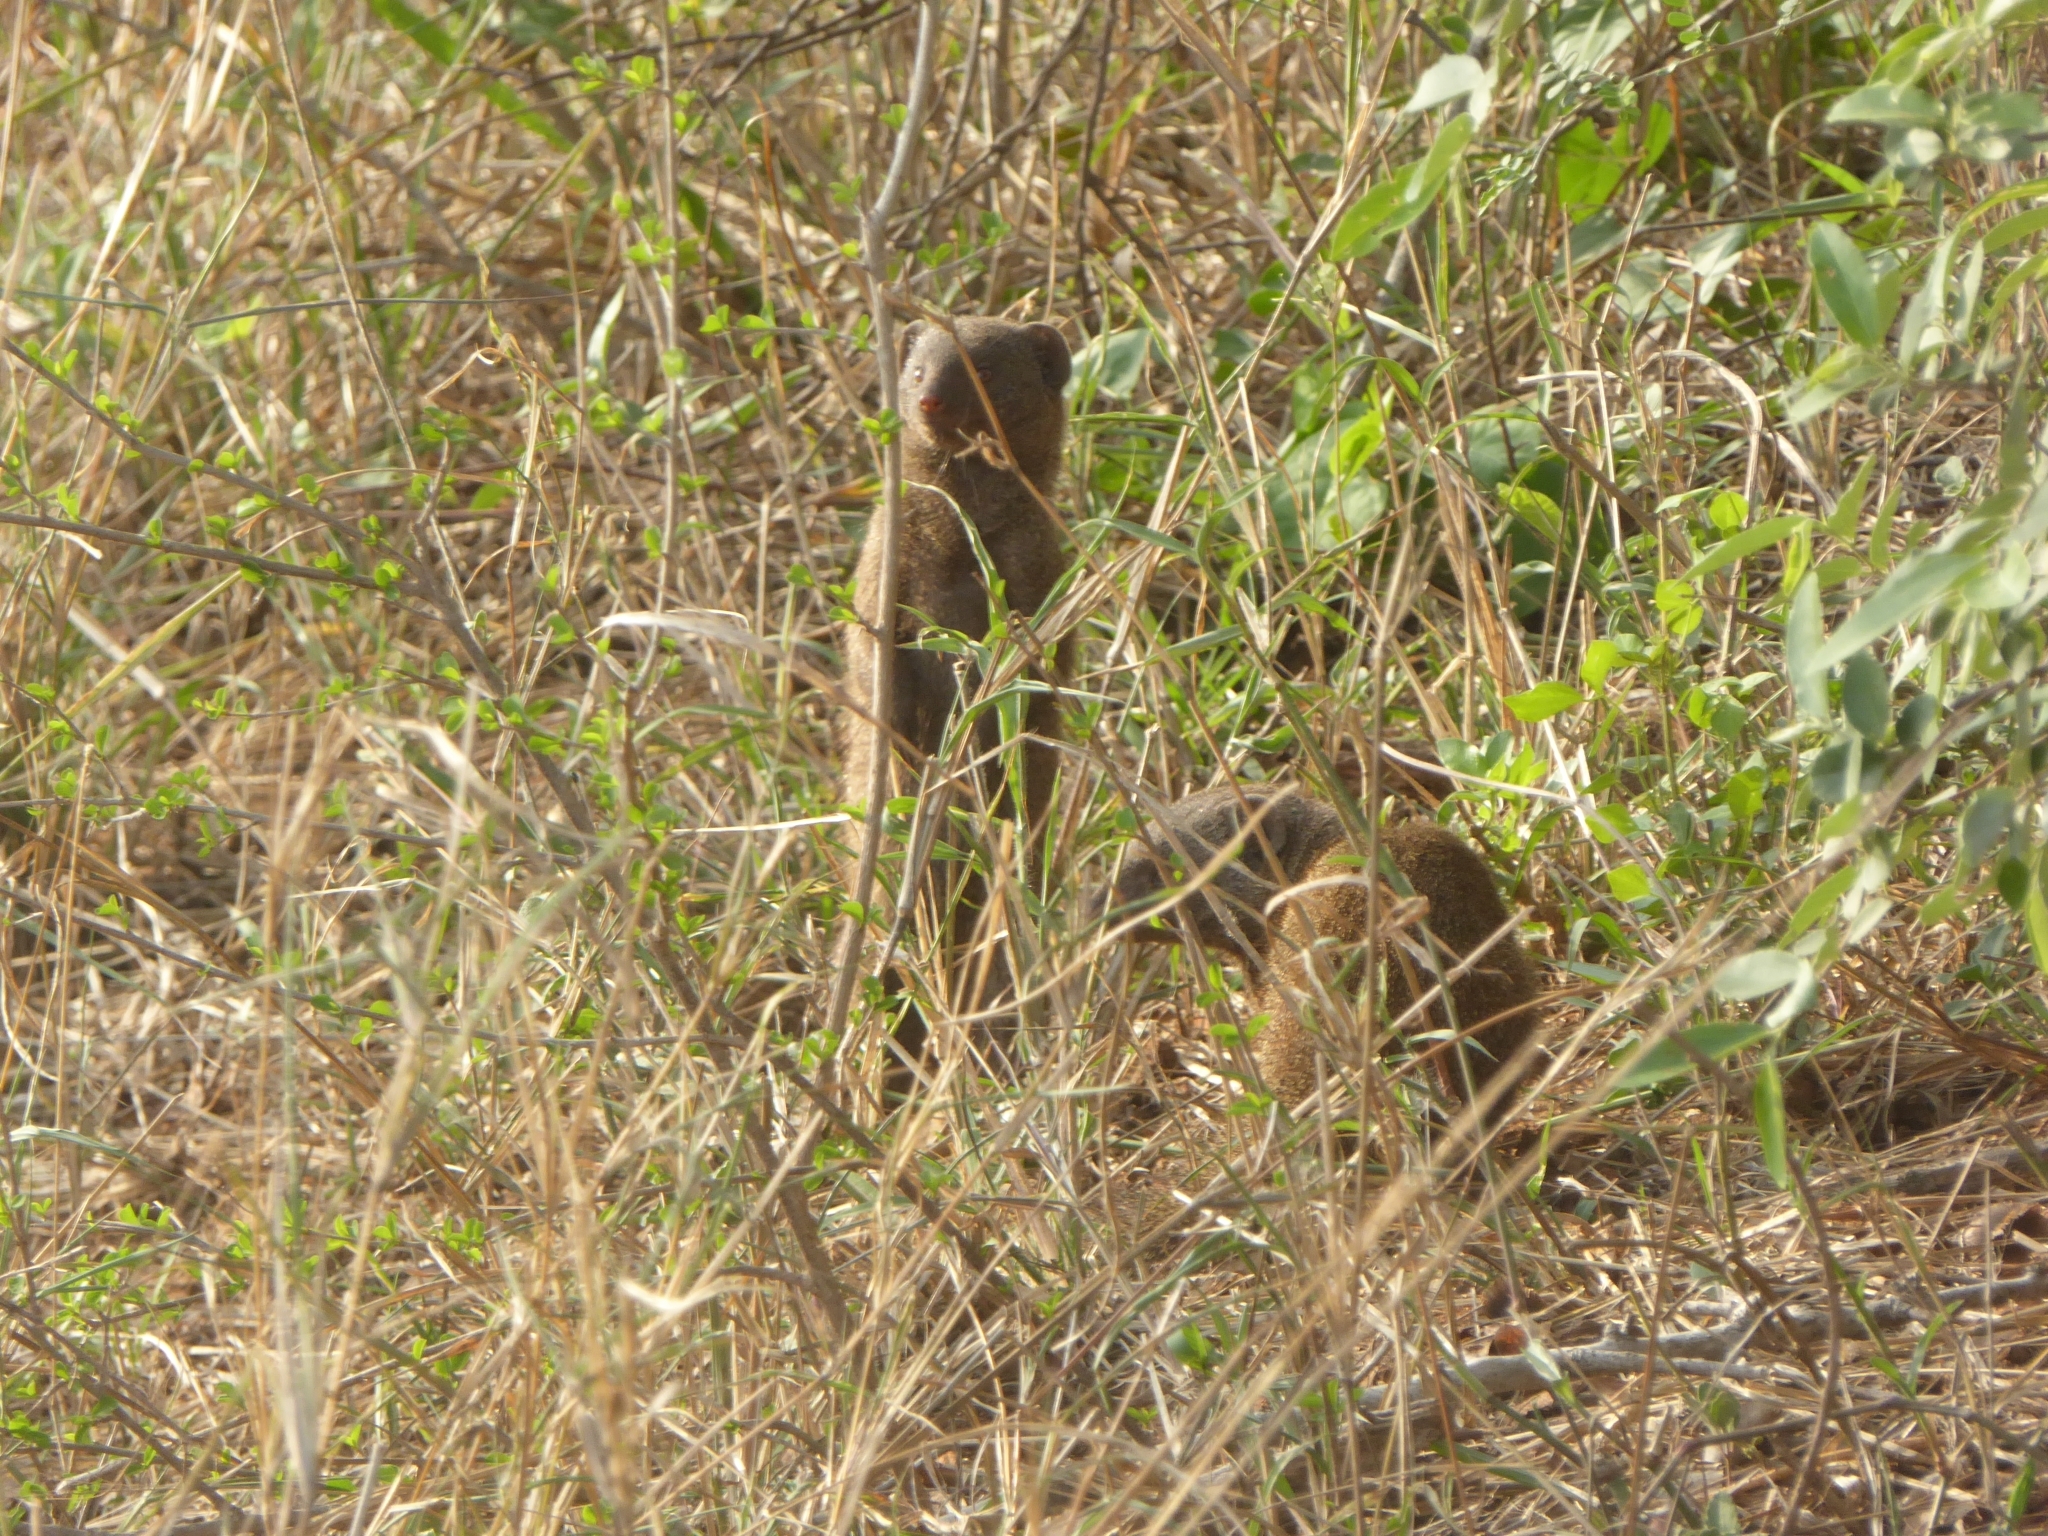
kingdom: Animalia
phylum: Chordata
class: Mammalia
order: Carnivora
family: Herpestidae
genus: Helogale
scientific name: Helogale parvula
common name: Common dwarf mongoose
